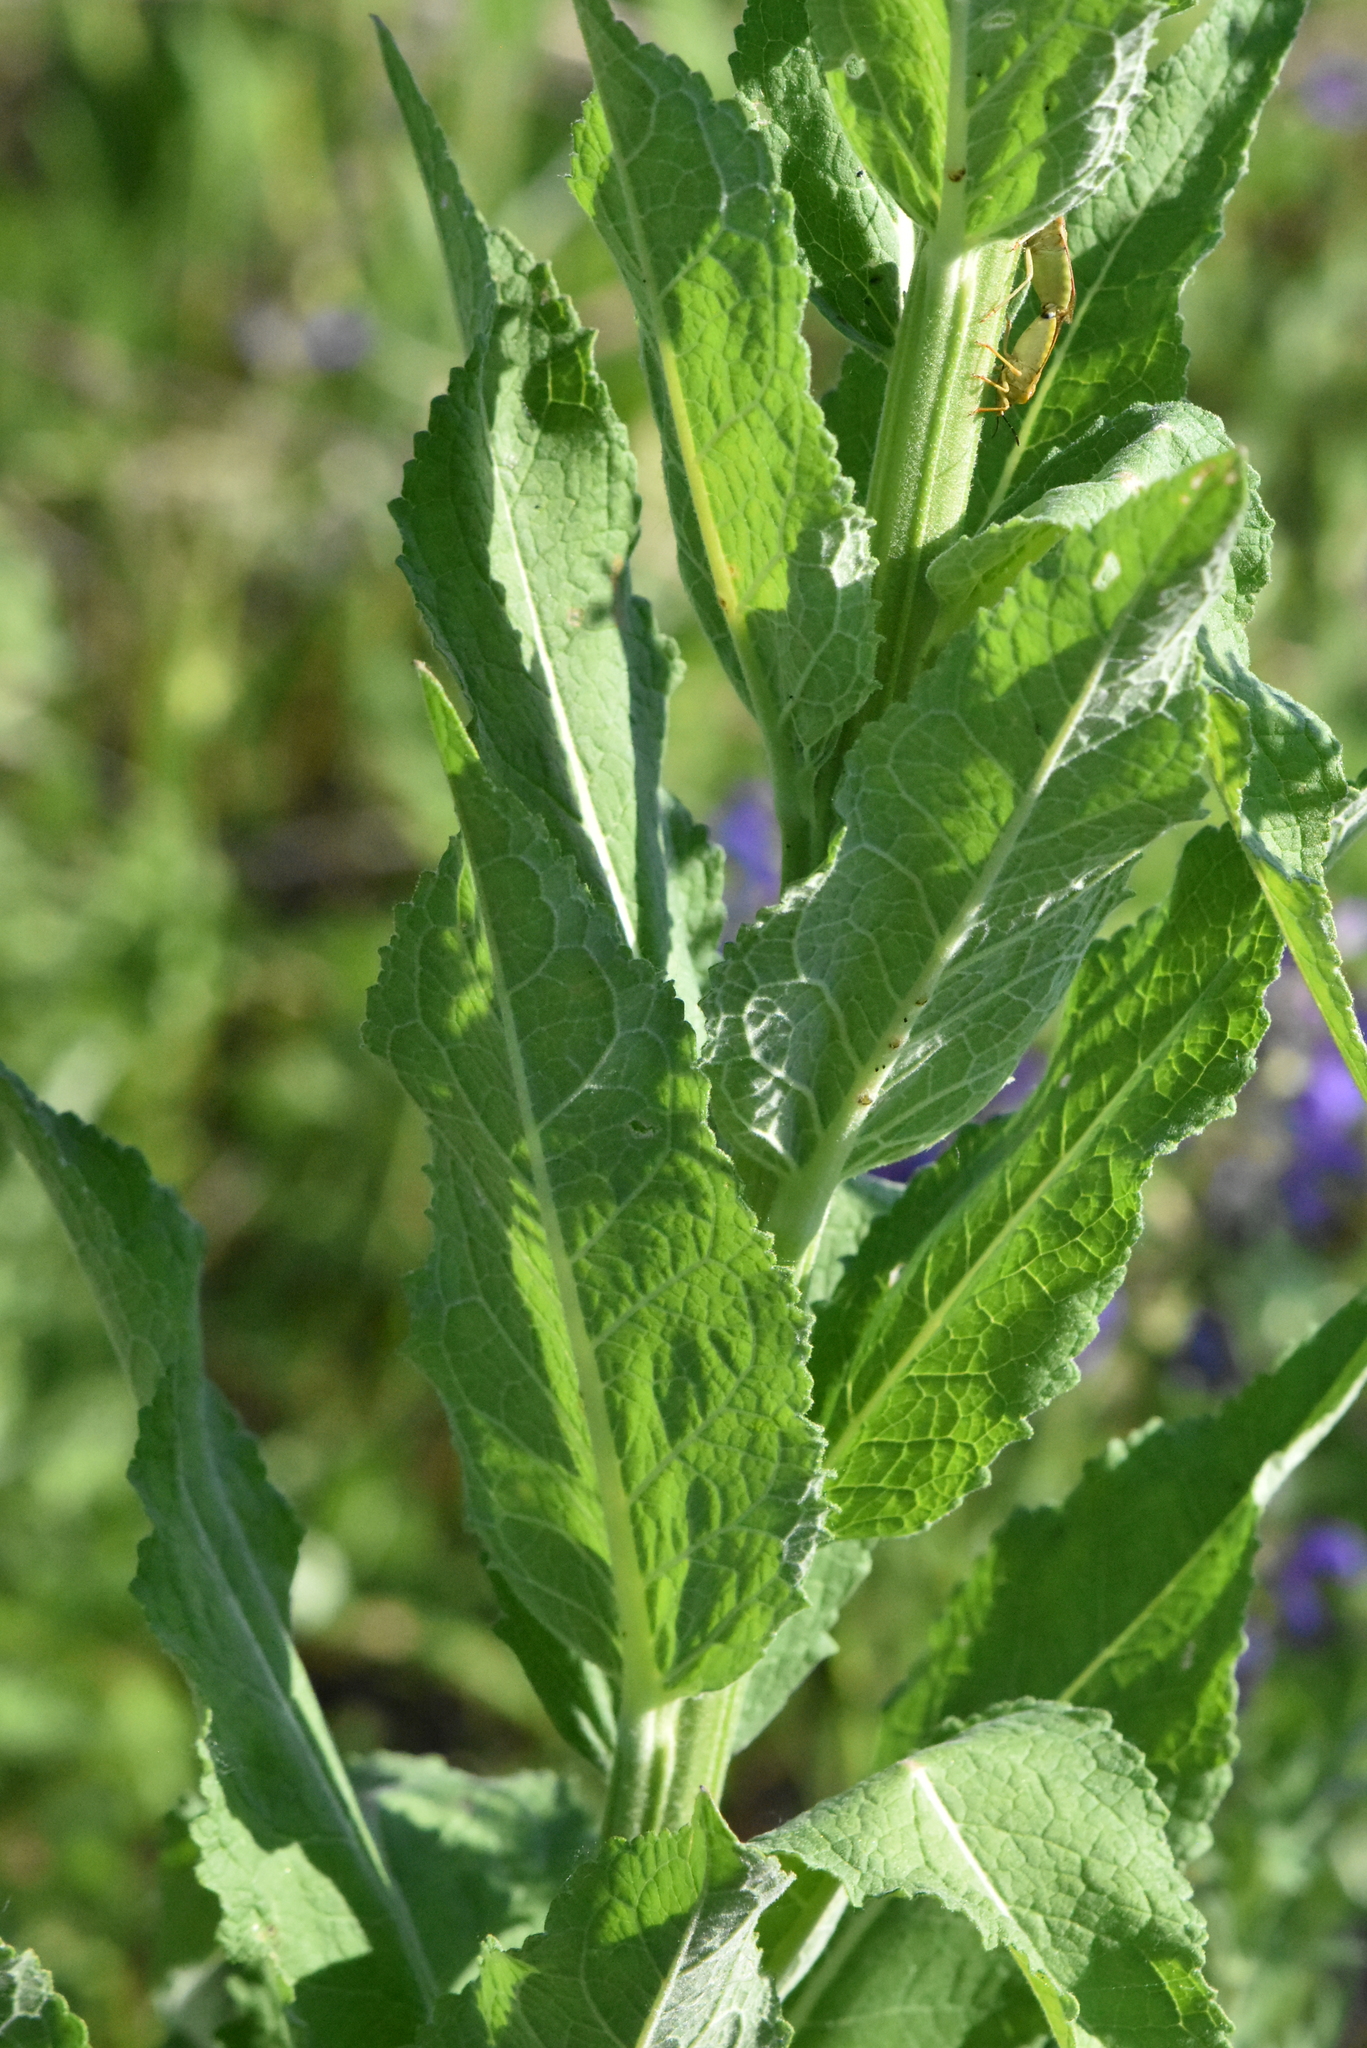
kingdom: Plantae
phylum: Tracheophyta
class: Magnoliopsida
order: Lamiales
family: Scrophulariaceae
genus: Verbascum
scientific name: Verbascum lychnitis
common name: White mullein
